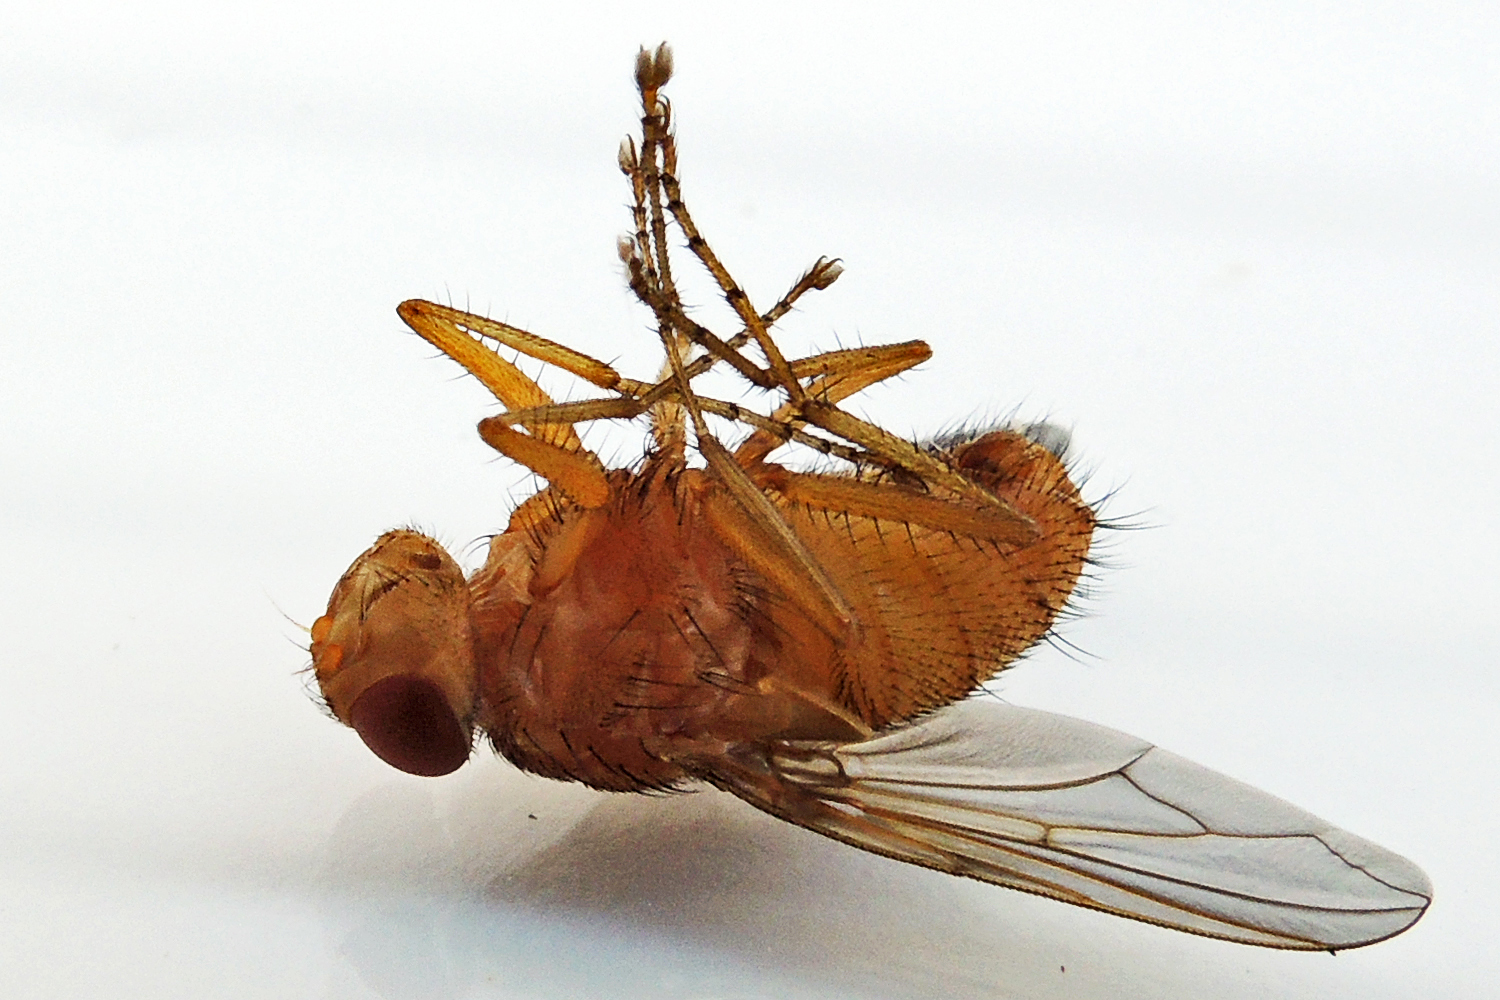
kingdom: Animalia
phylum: Arthropoda
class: Insecta
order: Diptera
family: Tachinidae
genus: Phasiops
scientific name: Phasiops flavus
